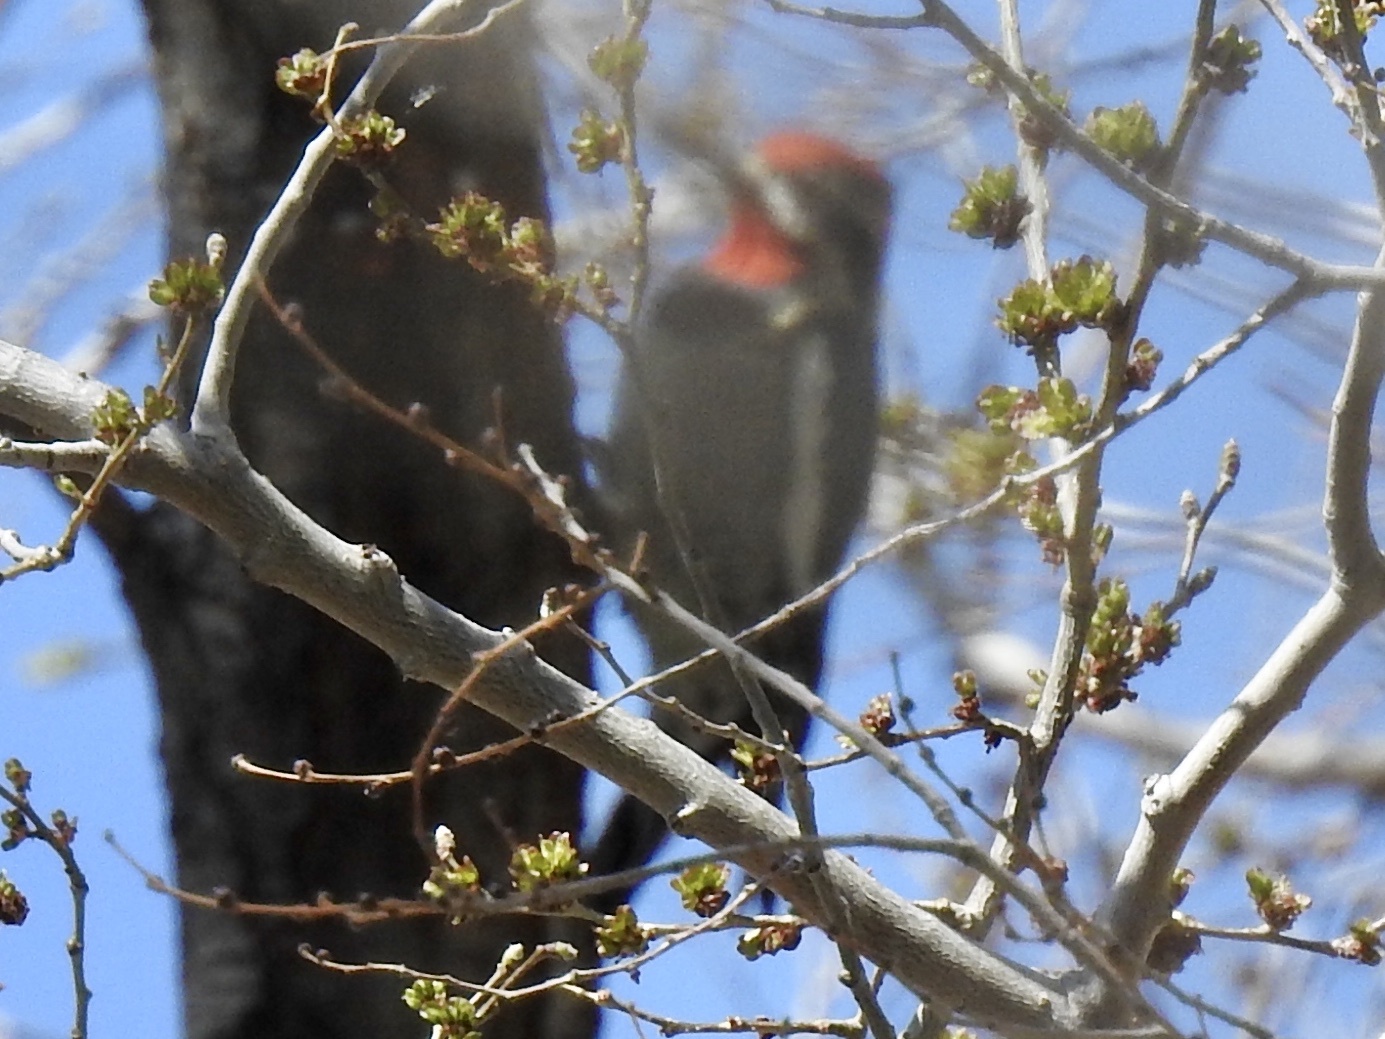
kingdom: Animalia
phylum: Chordata
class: Aves
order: Piciformes
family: Picidae
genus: Sphyrapicus
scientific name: Sphyrapicus nuchalis
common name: Red-naped sapsucker
